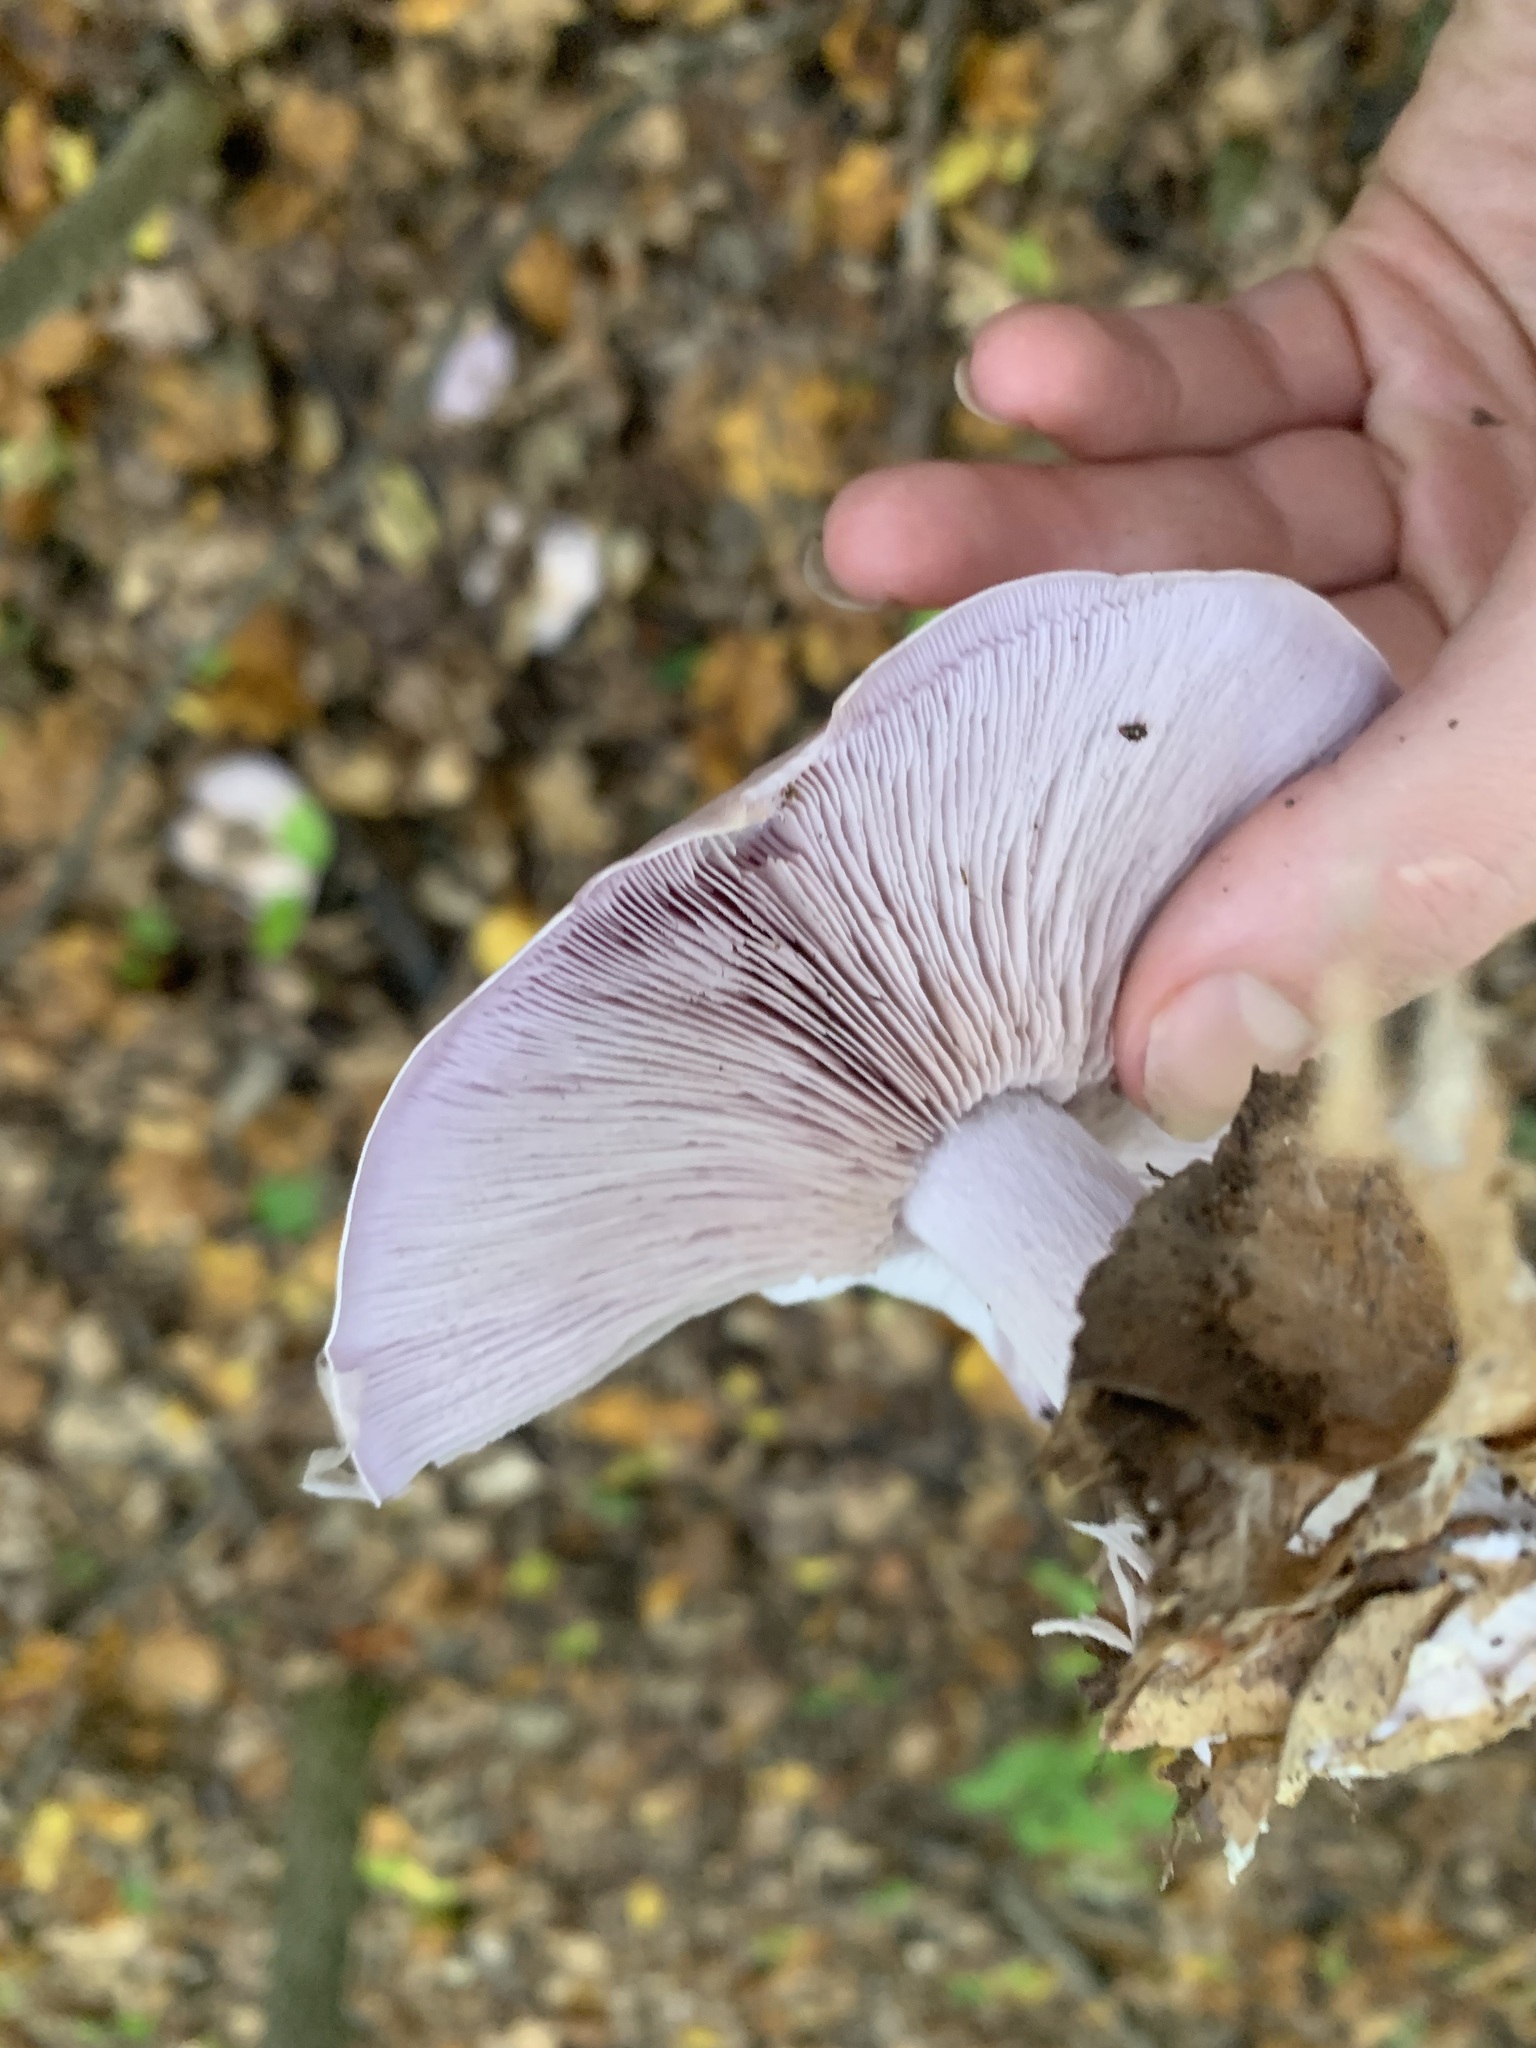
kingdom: Fungi
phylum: Basidiomycota
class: Agaricomycetes
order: Agaricales
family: Tricholomataceae
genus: Collybia
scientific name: Collybia
